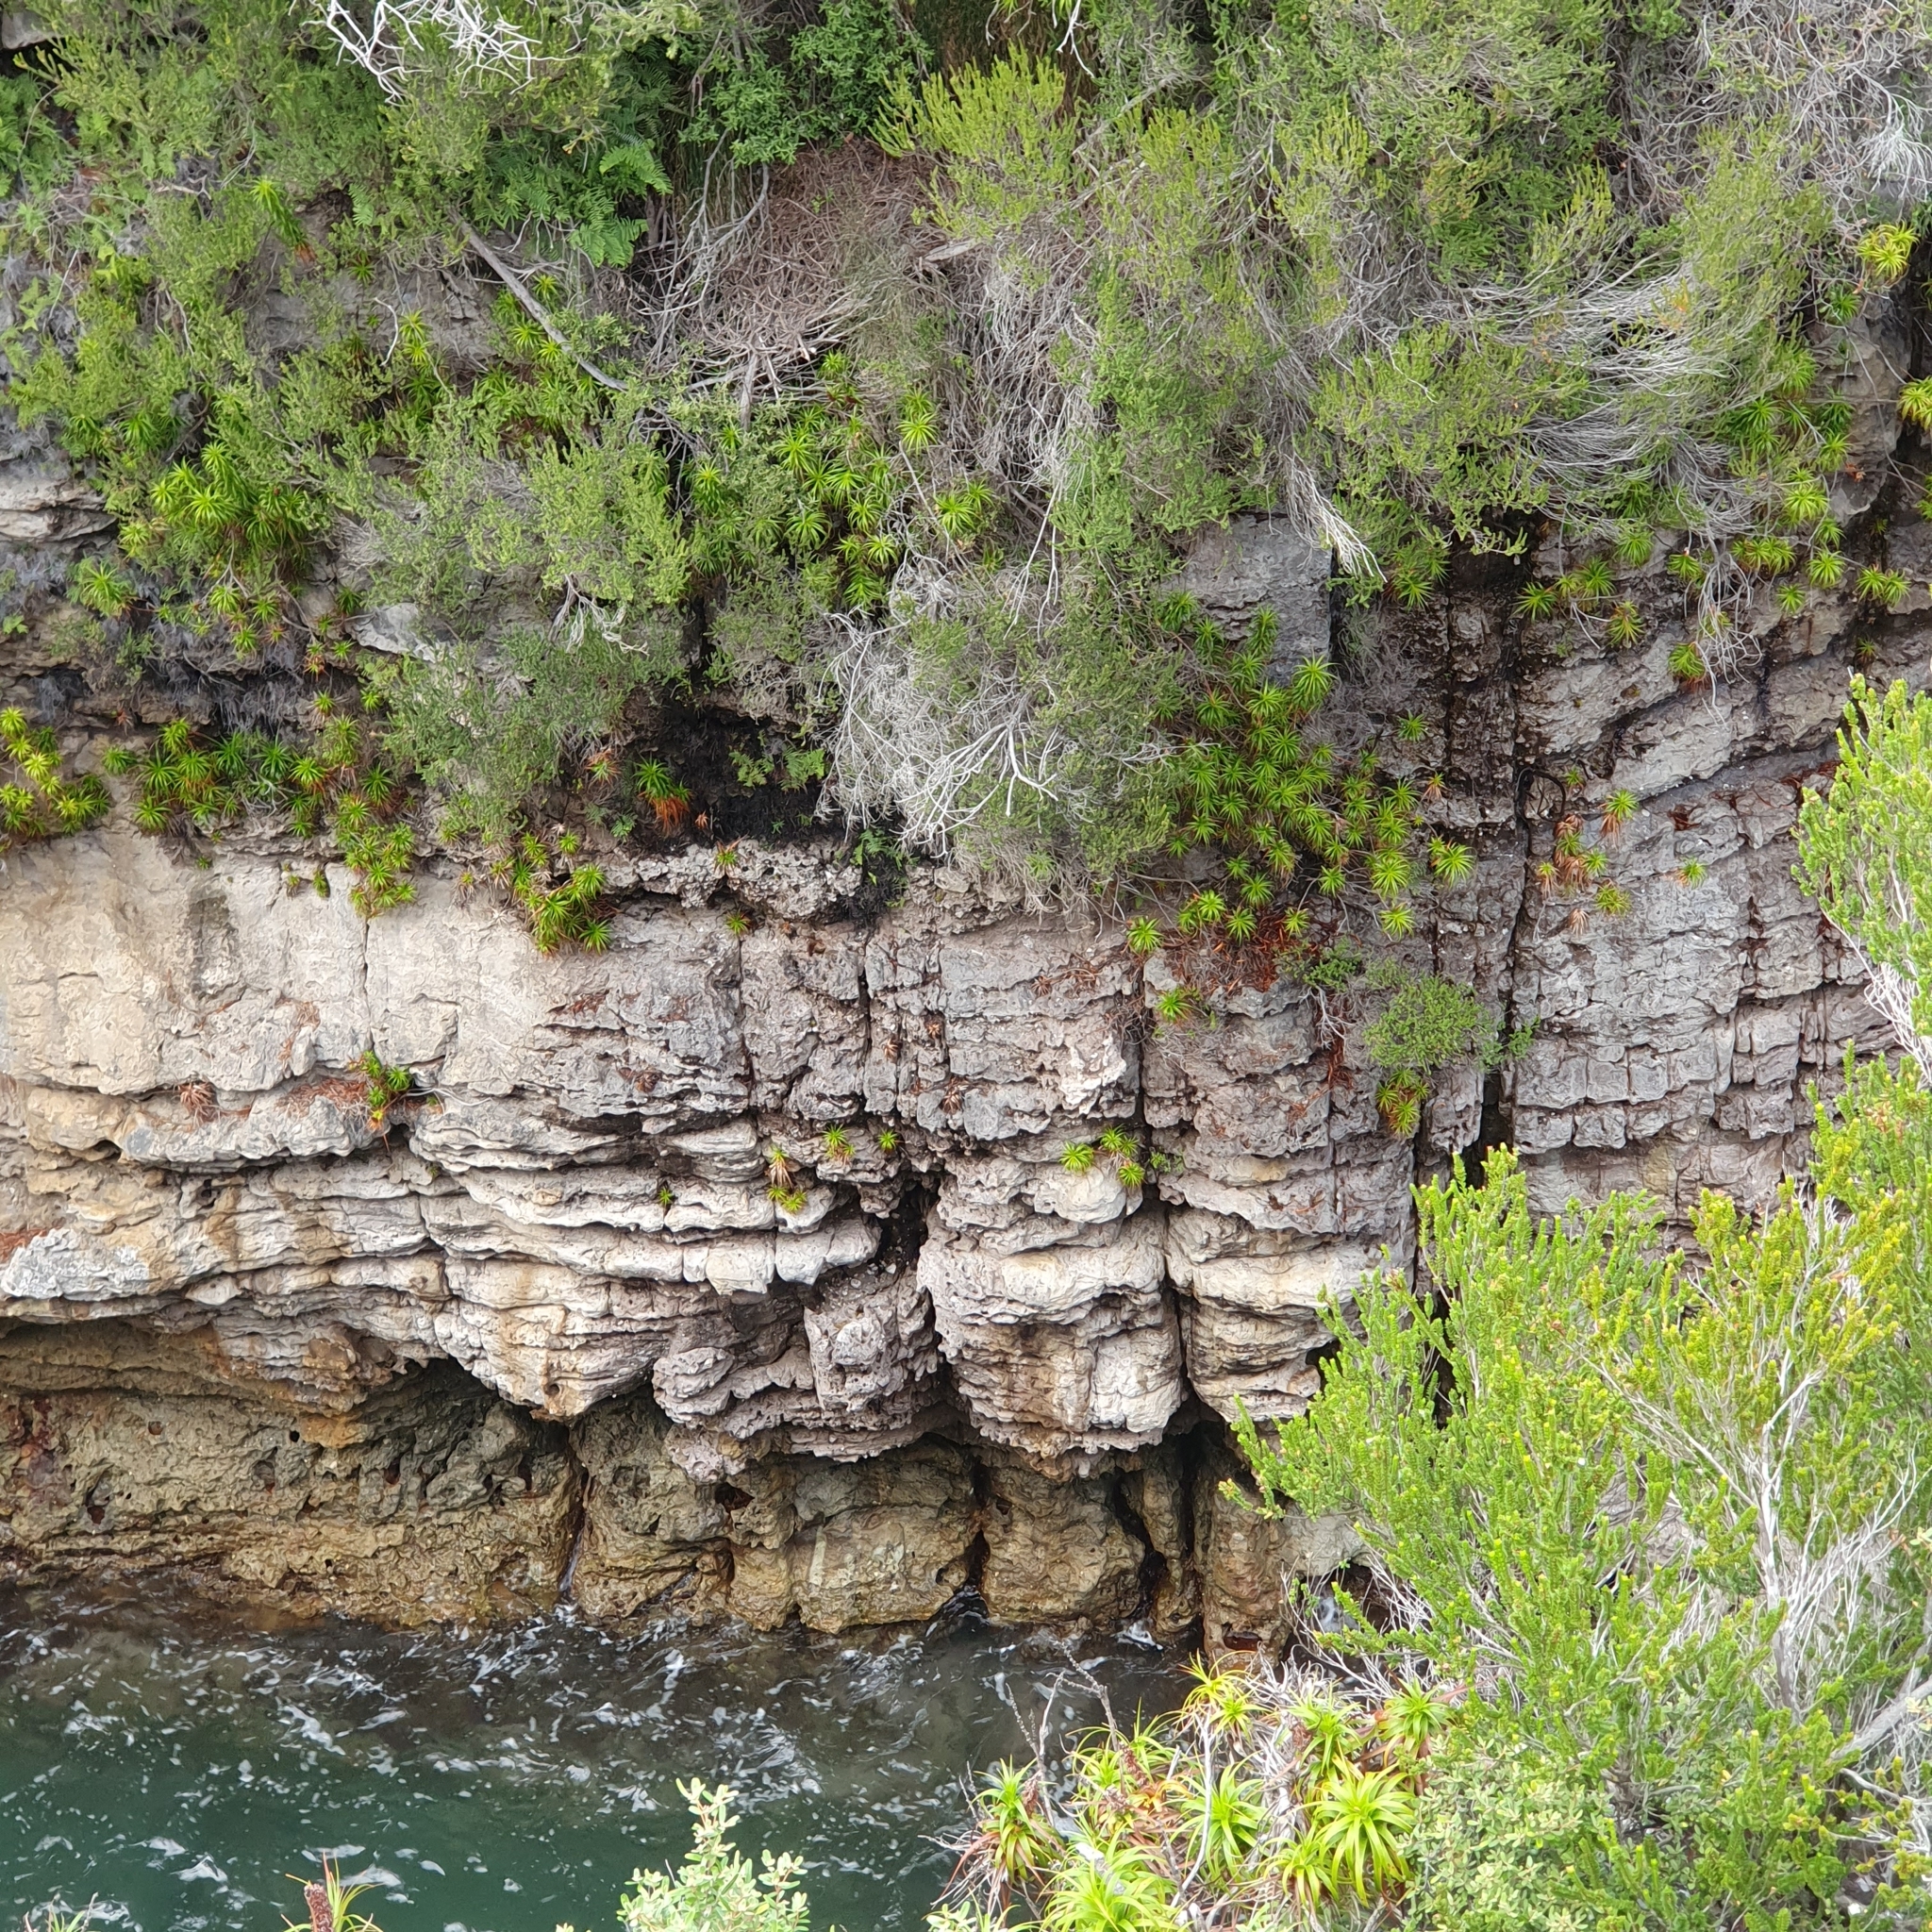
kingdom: Plantae
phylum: Tracheophyta
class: Magnoliopsida
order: Ericales
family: Ericaceae
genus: Dracophyllum
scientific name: Dracophyllum oceanicum
